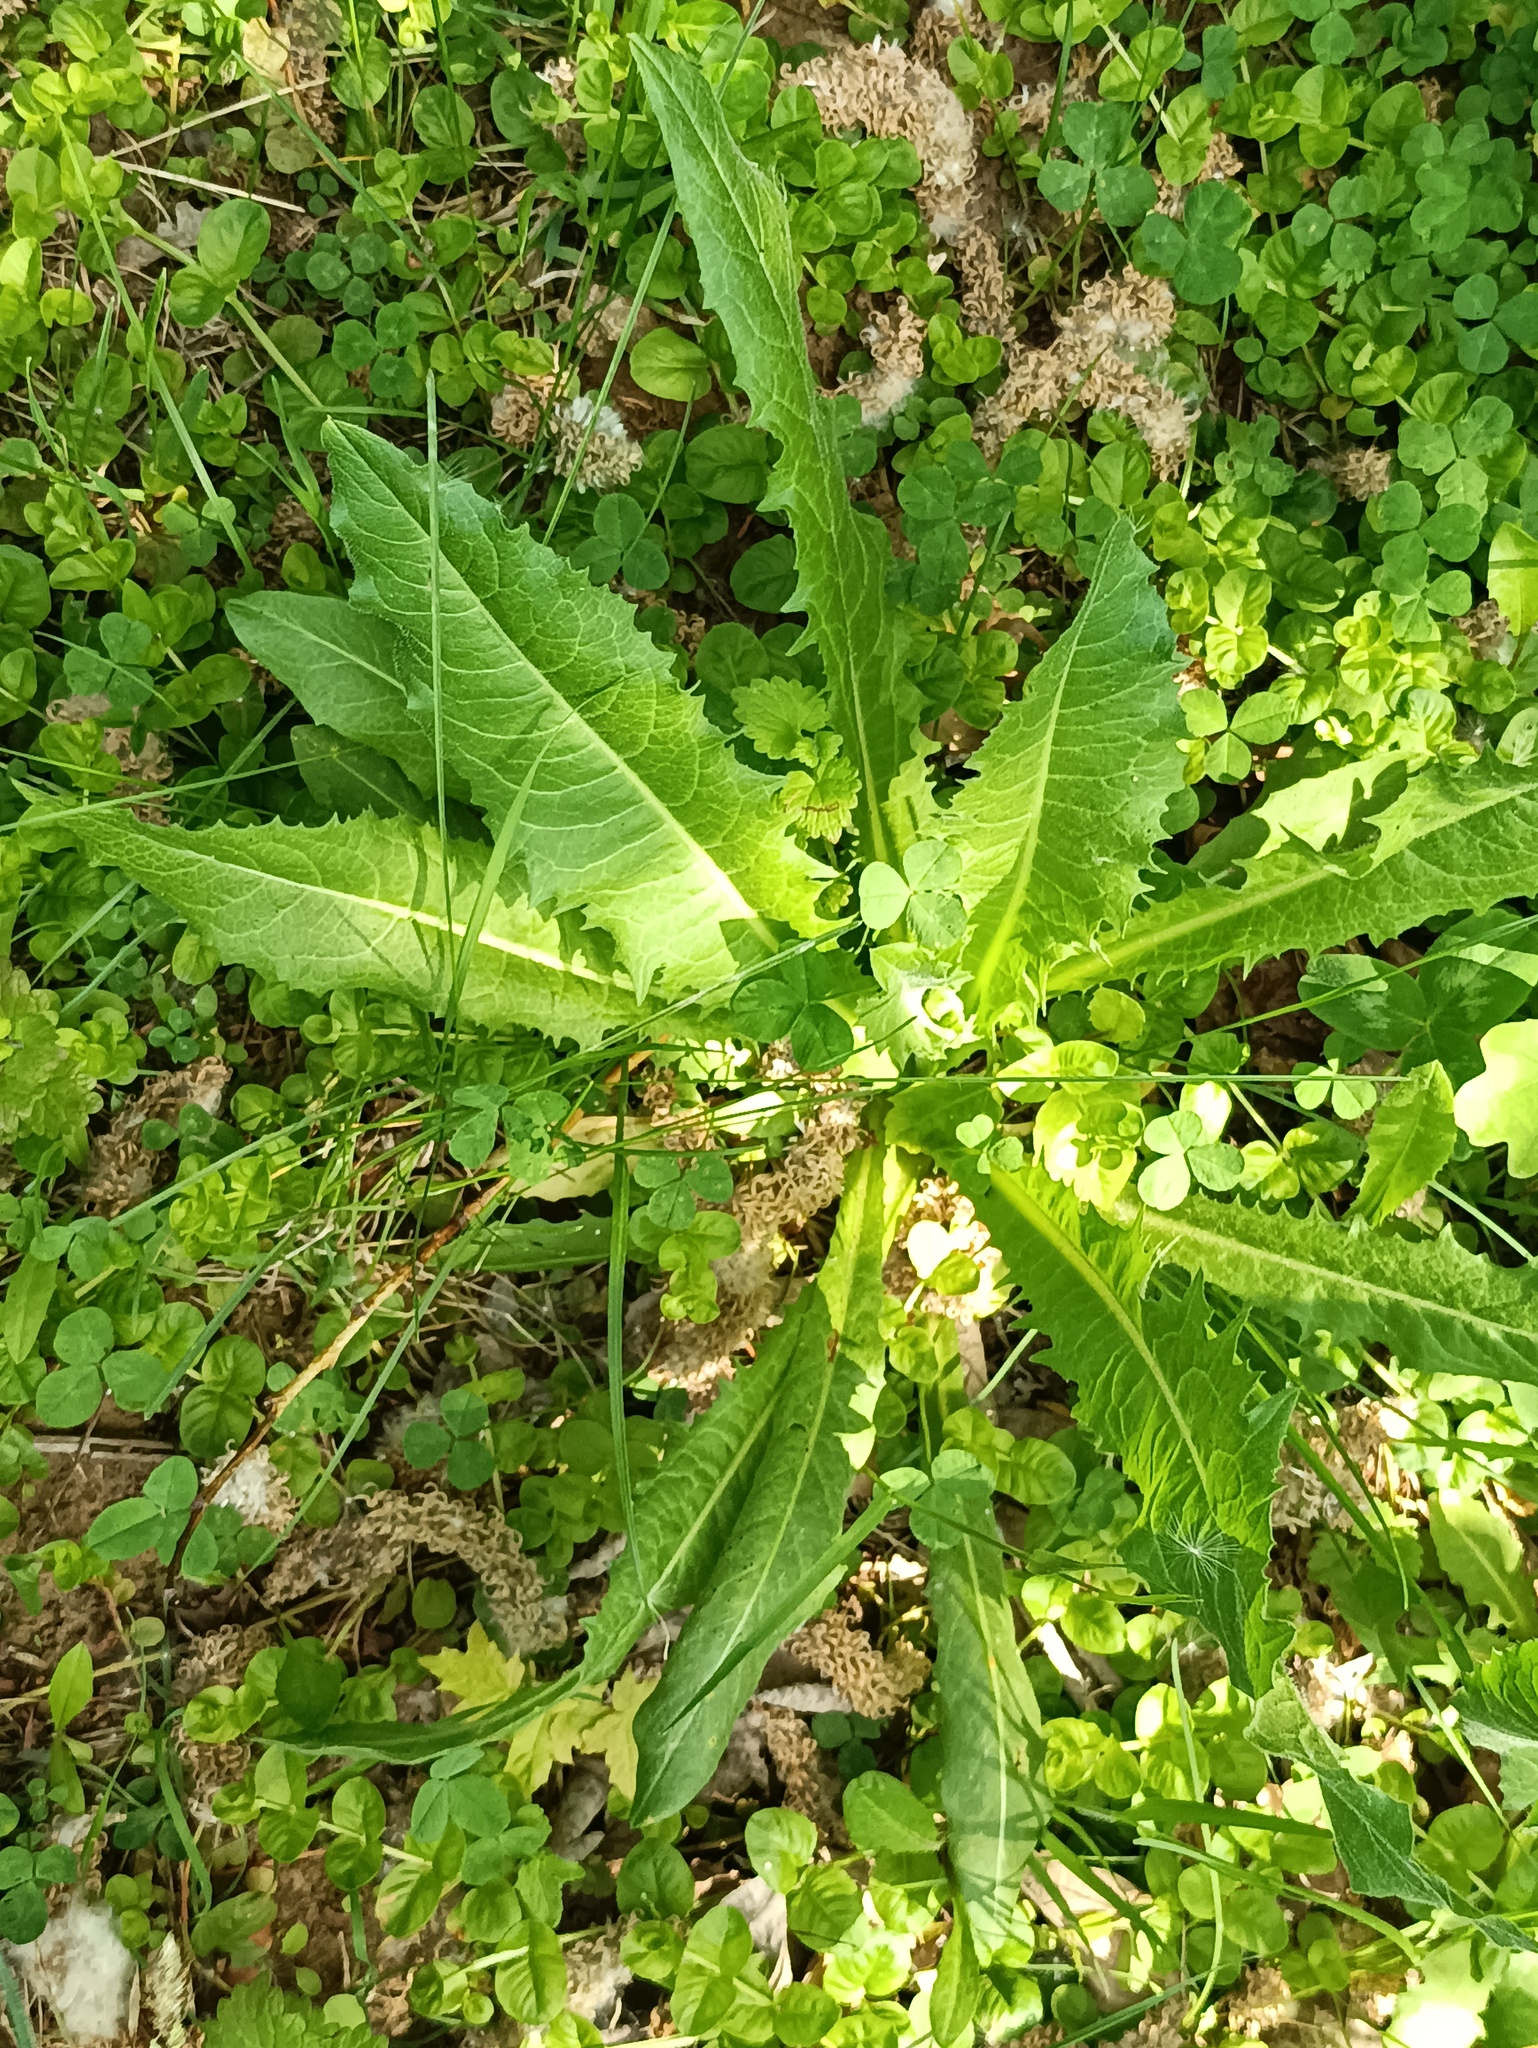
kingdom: Plantae
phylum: Tracheophyta
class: Magnoliopsida
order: Asterales
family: Asteraceae
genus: Cichorium
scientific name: Cichorium intybus
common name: Chicory
